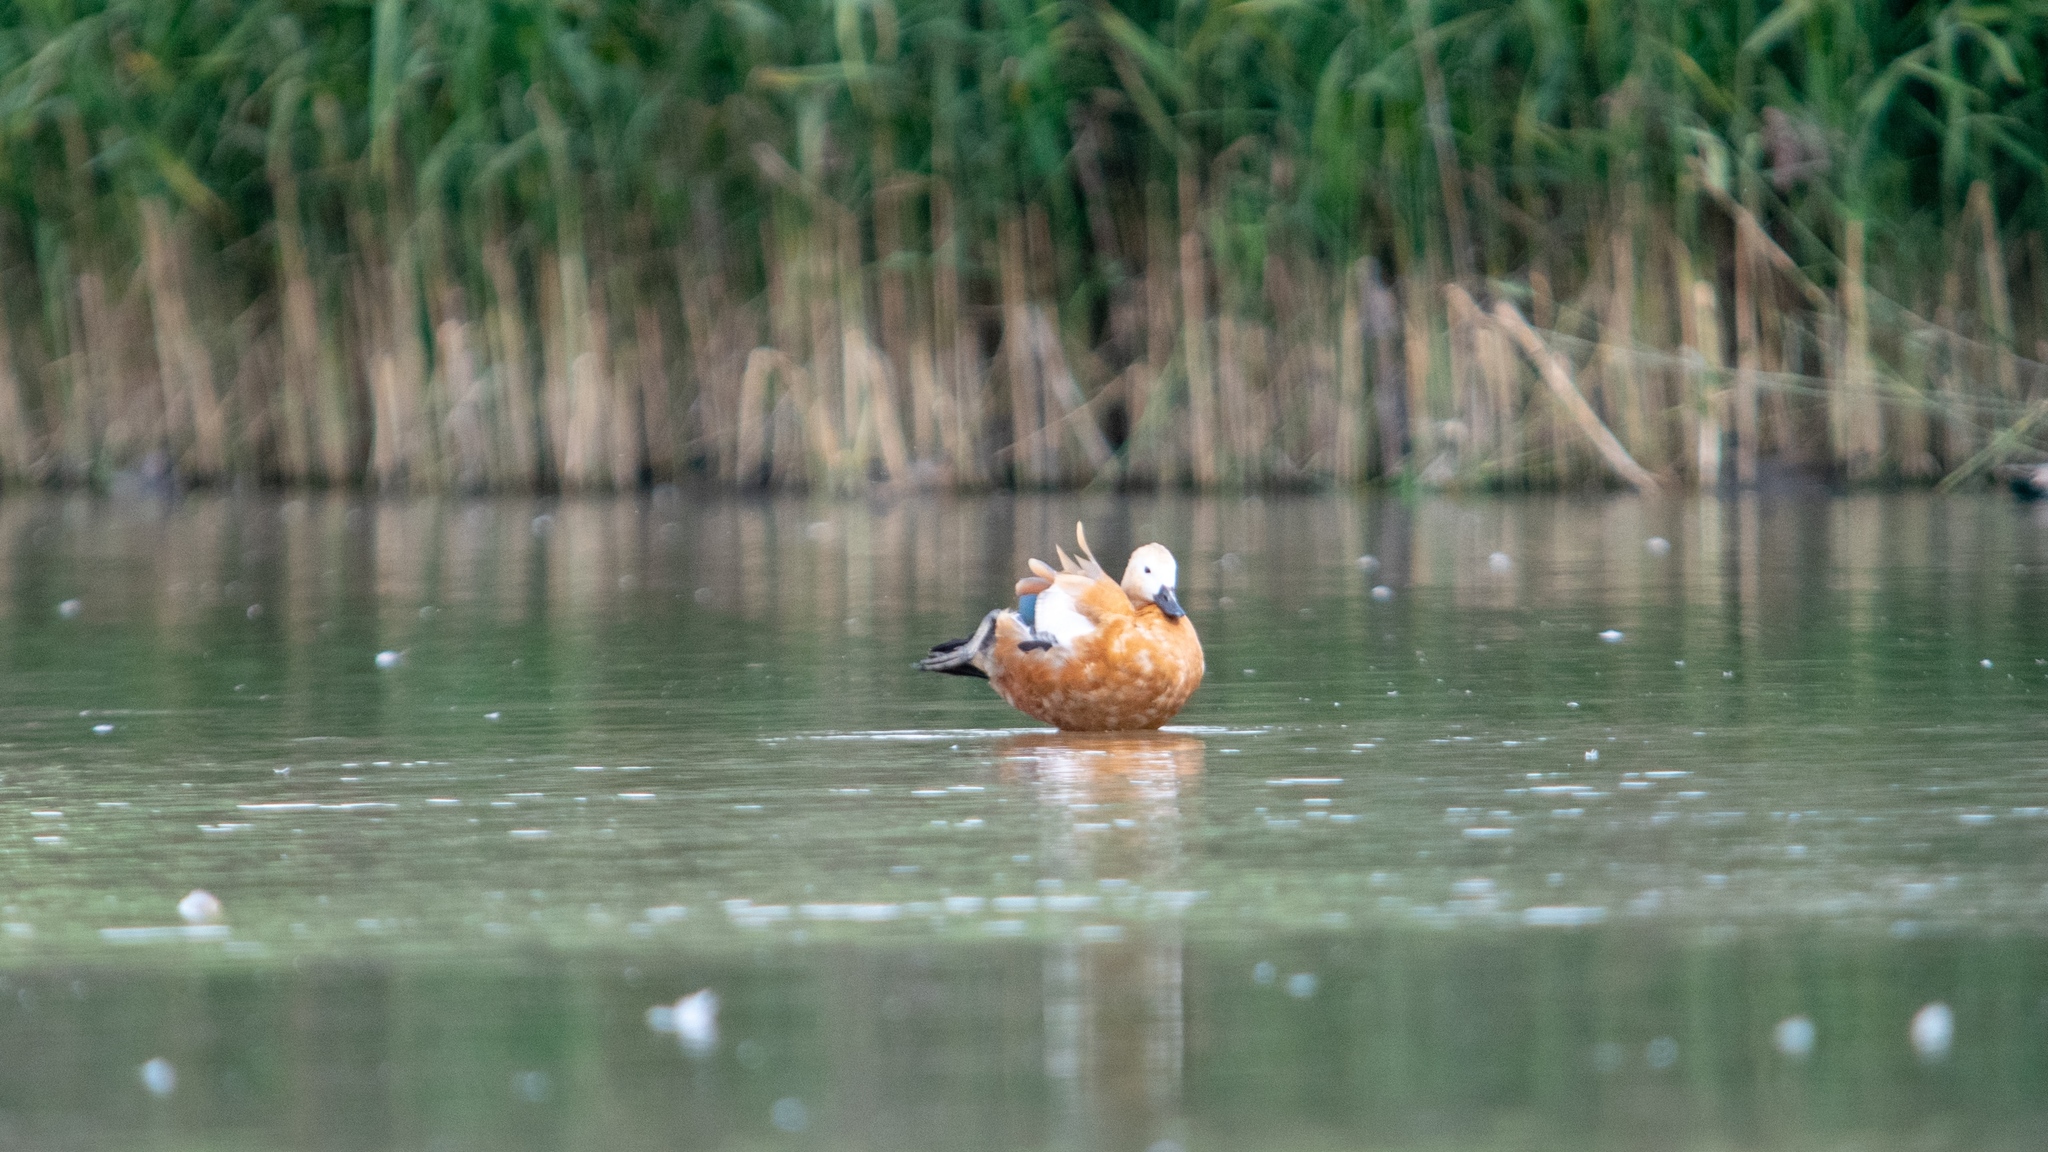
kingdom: Animalia
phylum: Chordata
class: Aves
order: Anseriformes
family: Anatidae
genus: Tadorna
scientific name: Tadorna ferruginea
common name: Ruddy shelduck
